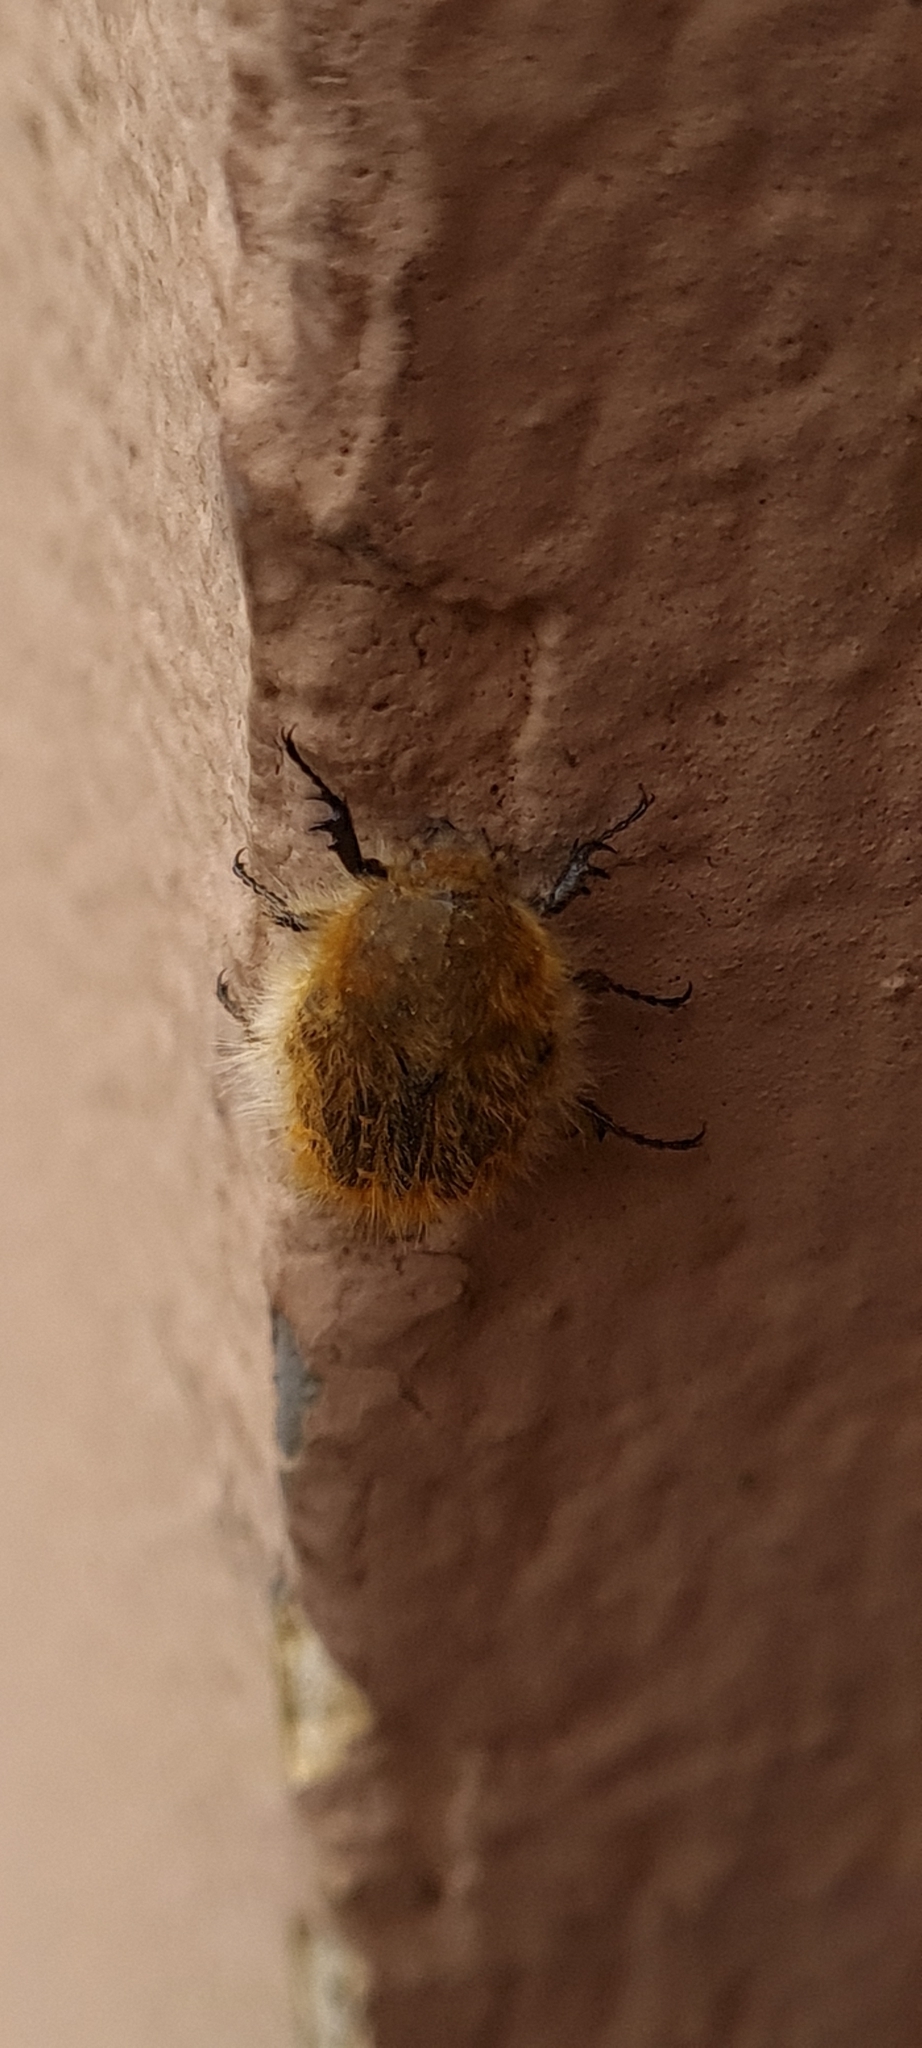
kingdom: Animalia
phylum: Arthropoda
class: Insecta
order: Coleoptera
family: Scarabaeidae
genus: Tropinota
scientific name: Tropinota squalida
